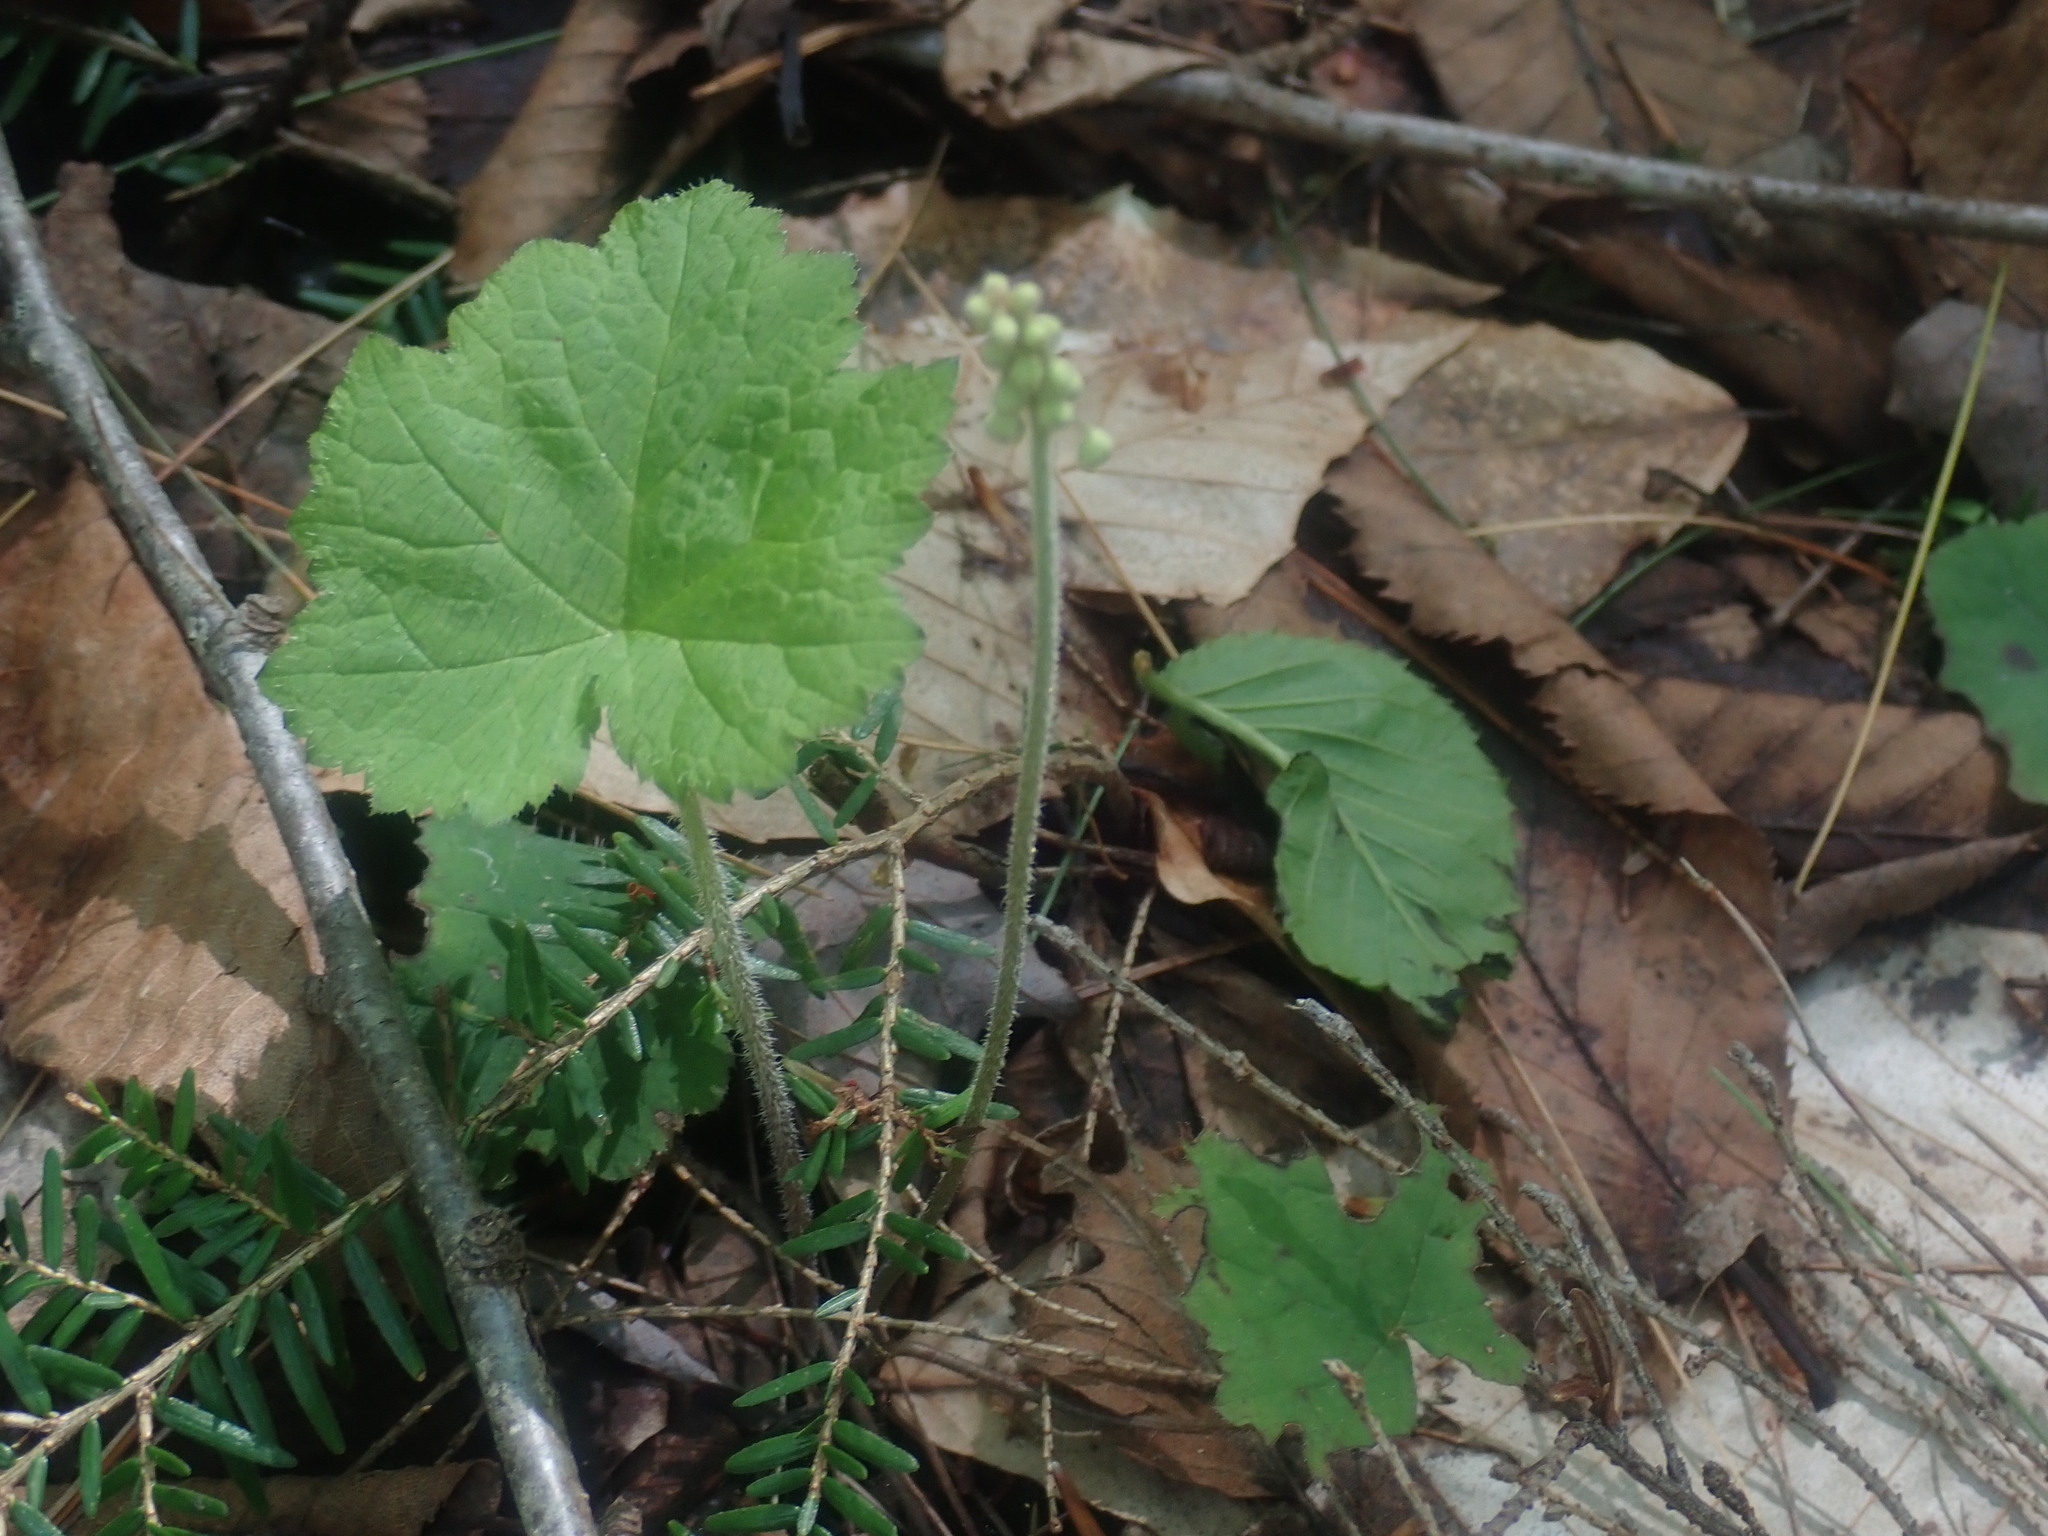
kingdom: Plantae
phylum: Tracheophyta
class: Magnoliopsida
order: Saxifragales
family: Saxifragaceae
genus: Tiarella
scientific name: Tiarella stolonifera
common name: Stoloniferous foamflower
